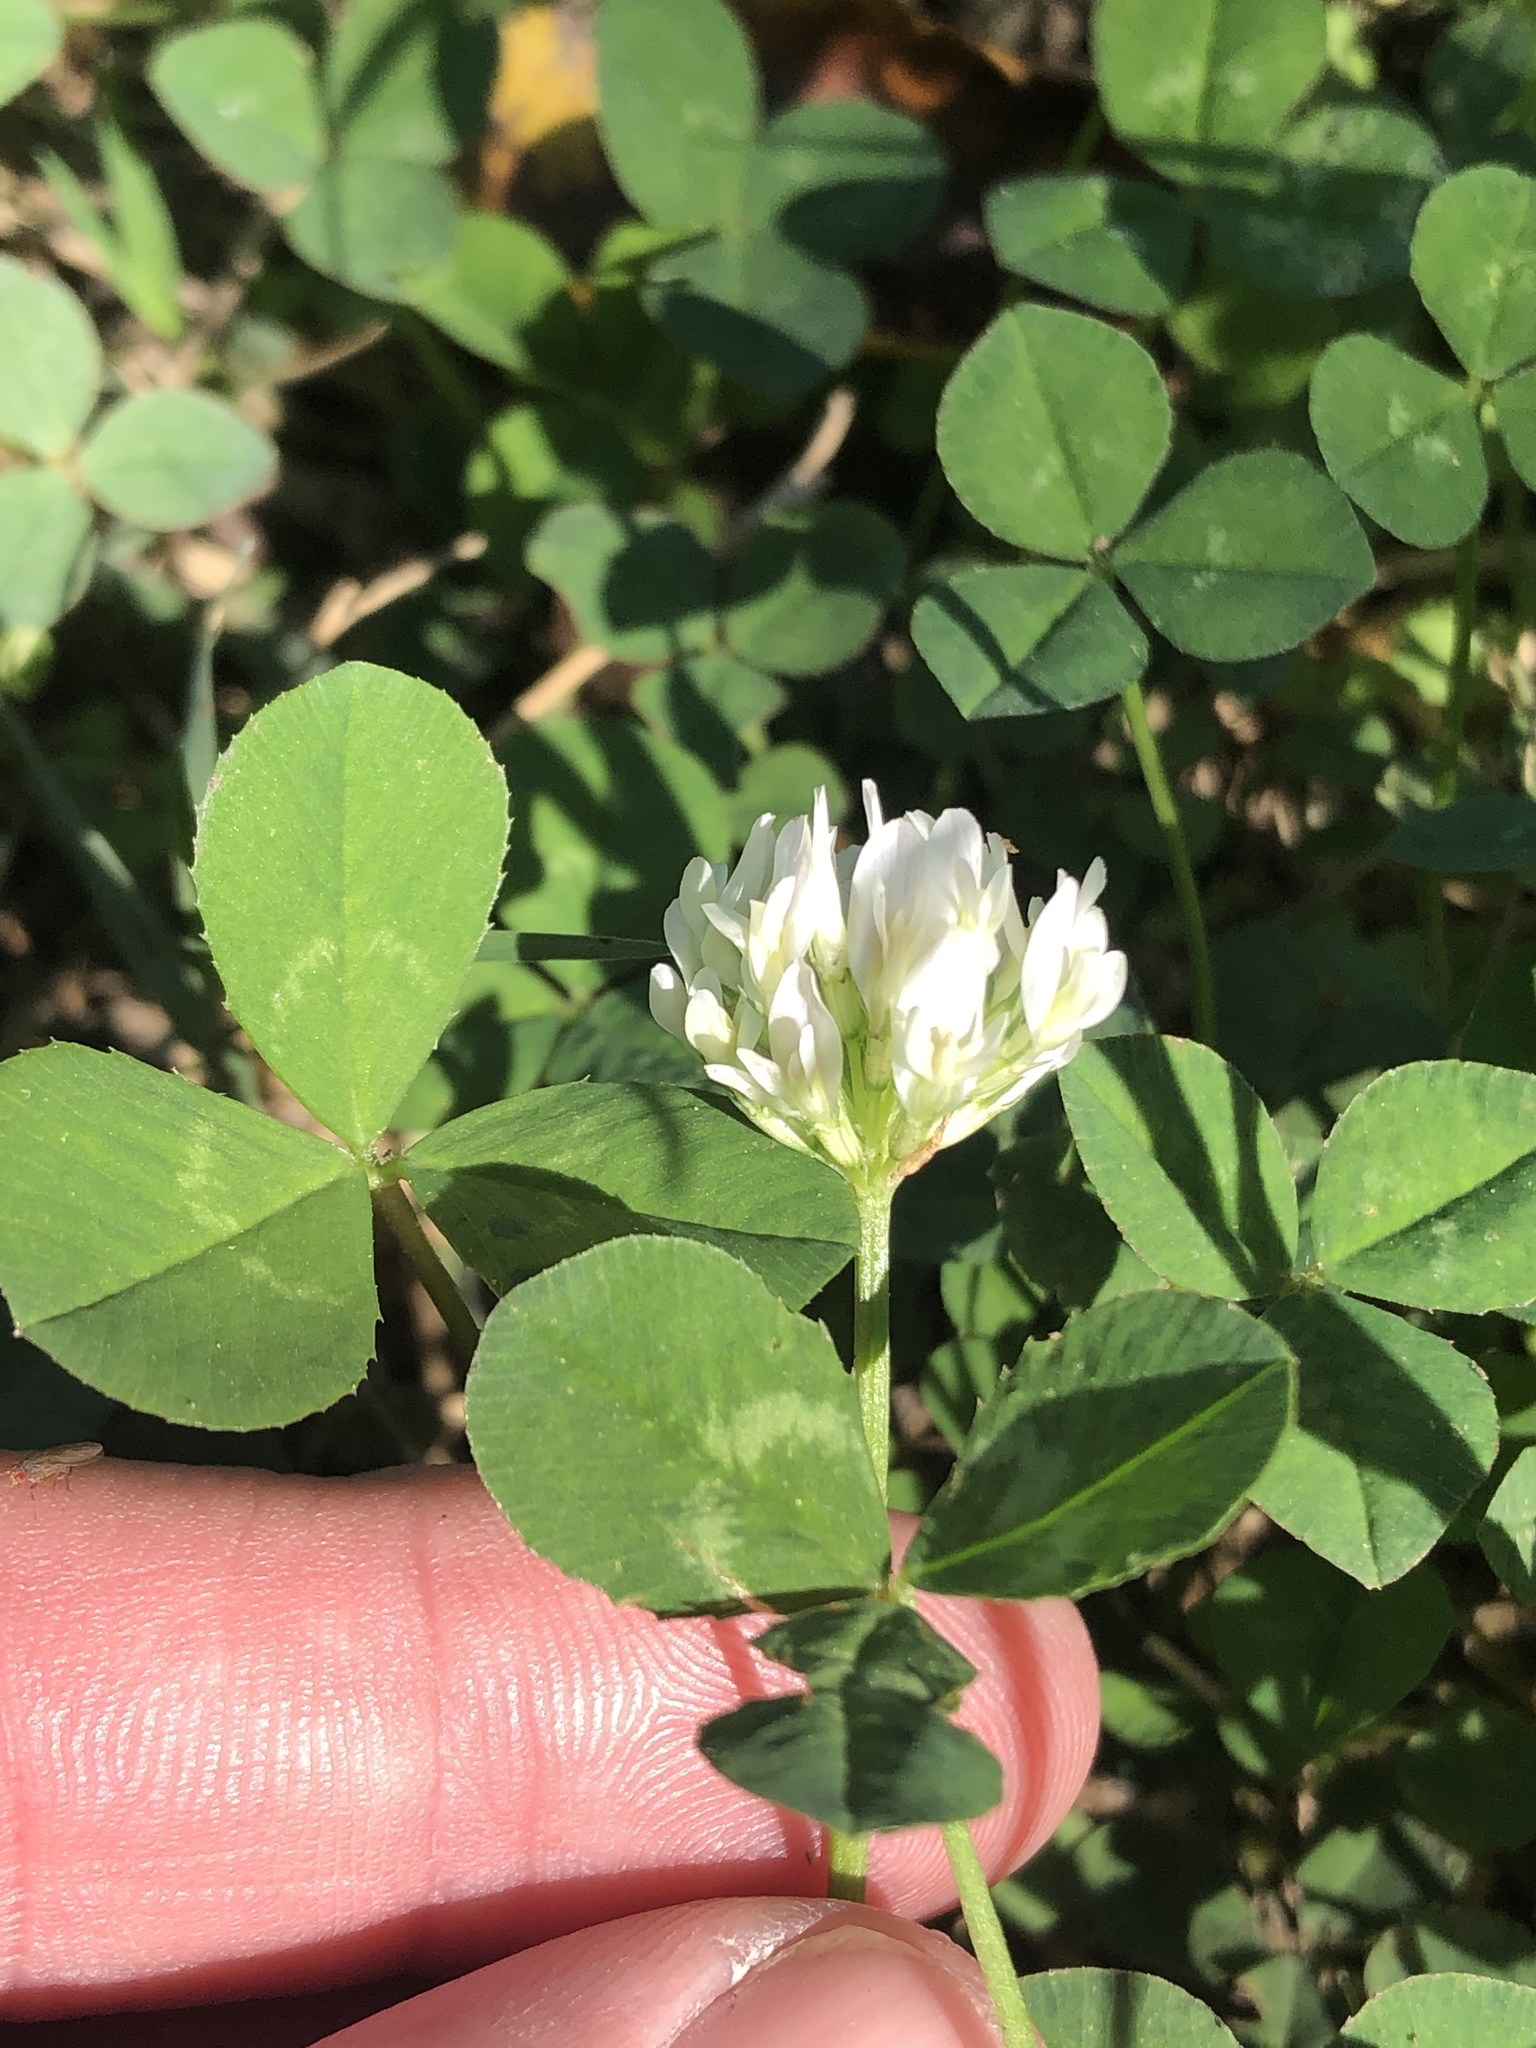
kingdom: Plantae
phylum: Tracheophyta
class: Magnoliopsida
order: Fabales
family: Fabaceae
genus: Trifolium
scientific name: Trifolium repens
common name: White clover
